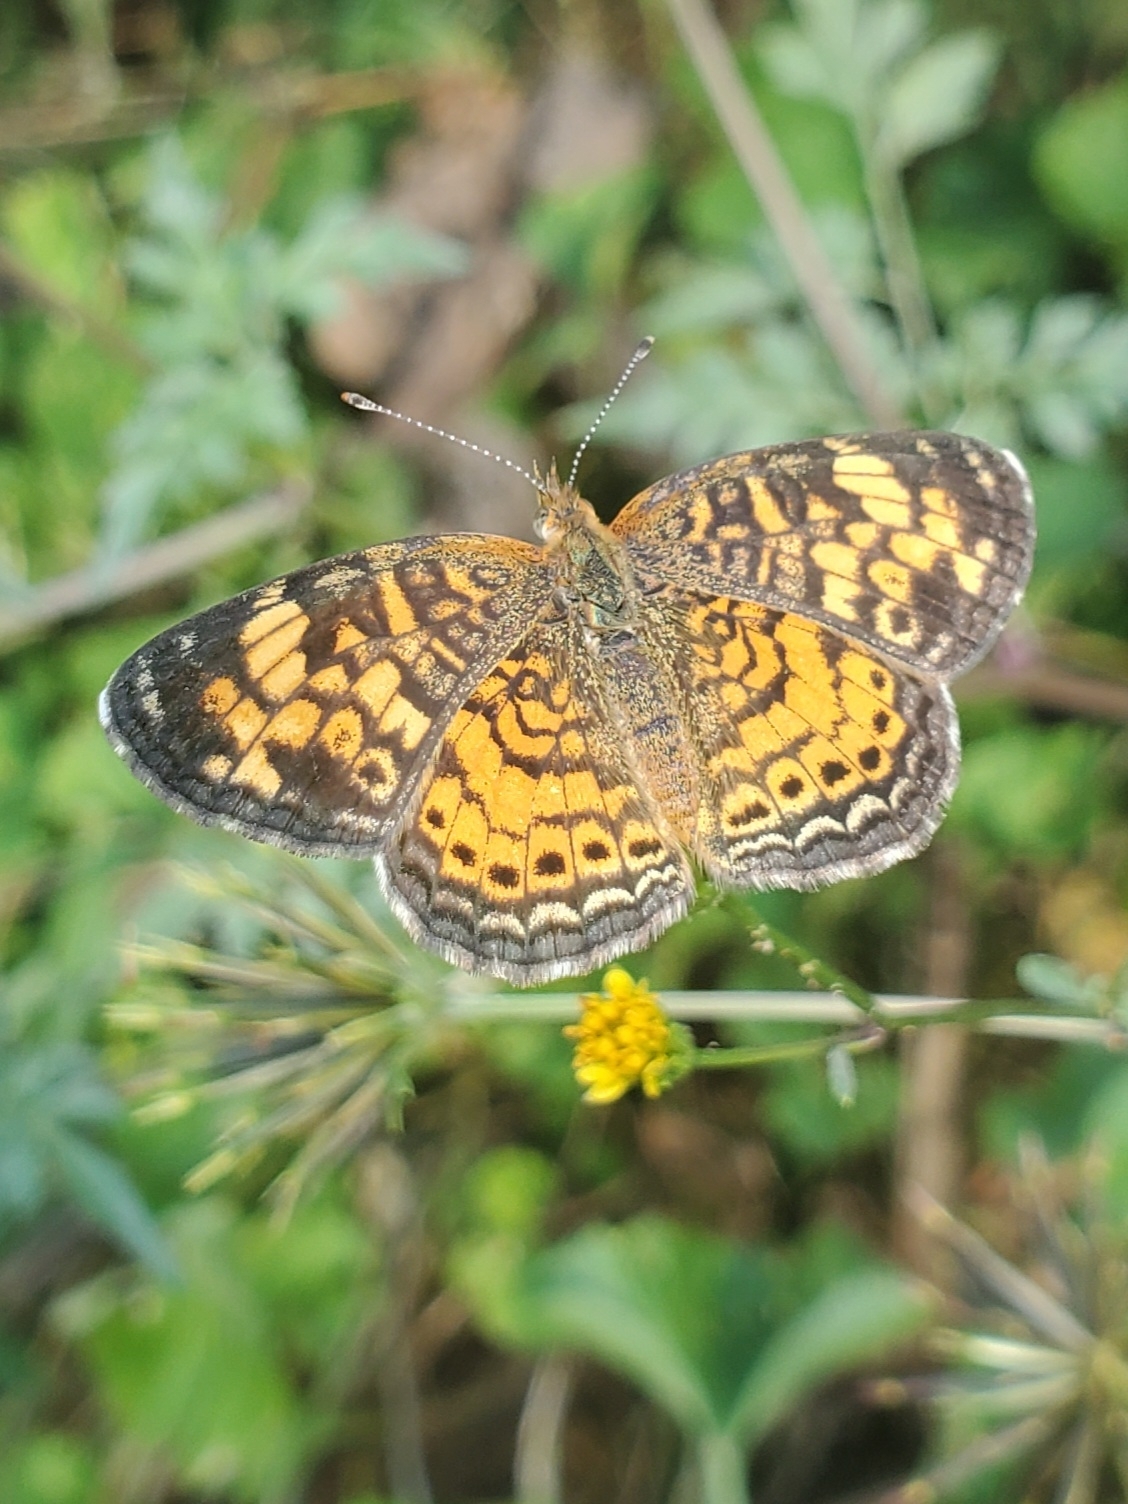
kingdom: Animalia
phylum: Arthropoda
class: Insecta
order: Lepidoptera
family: Nymphalidae
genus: Phyciodes
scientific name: Phyciodes tharos
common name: Pearl crescent
